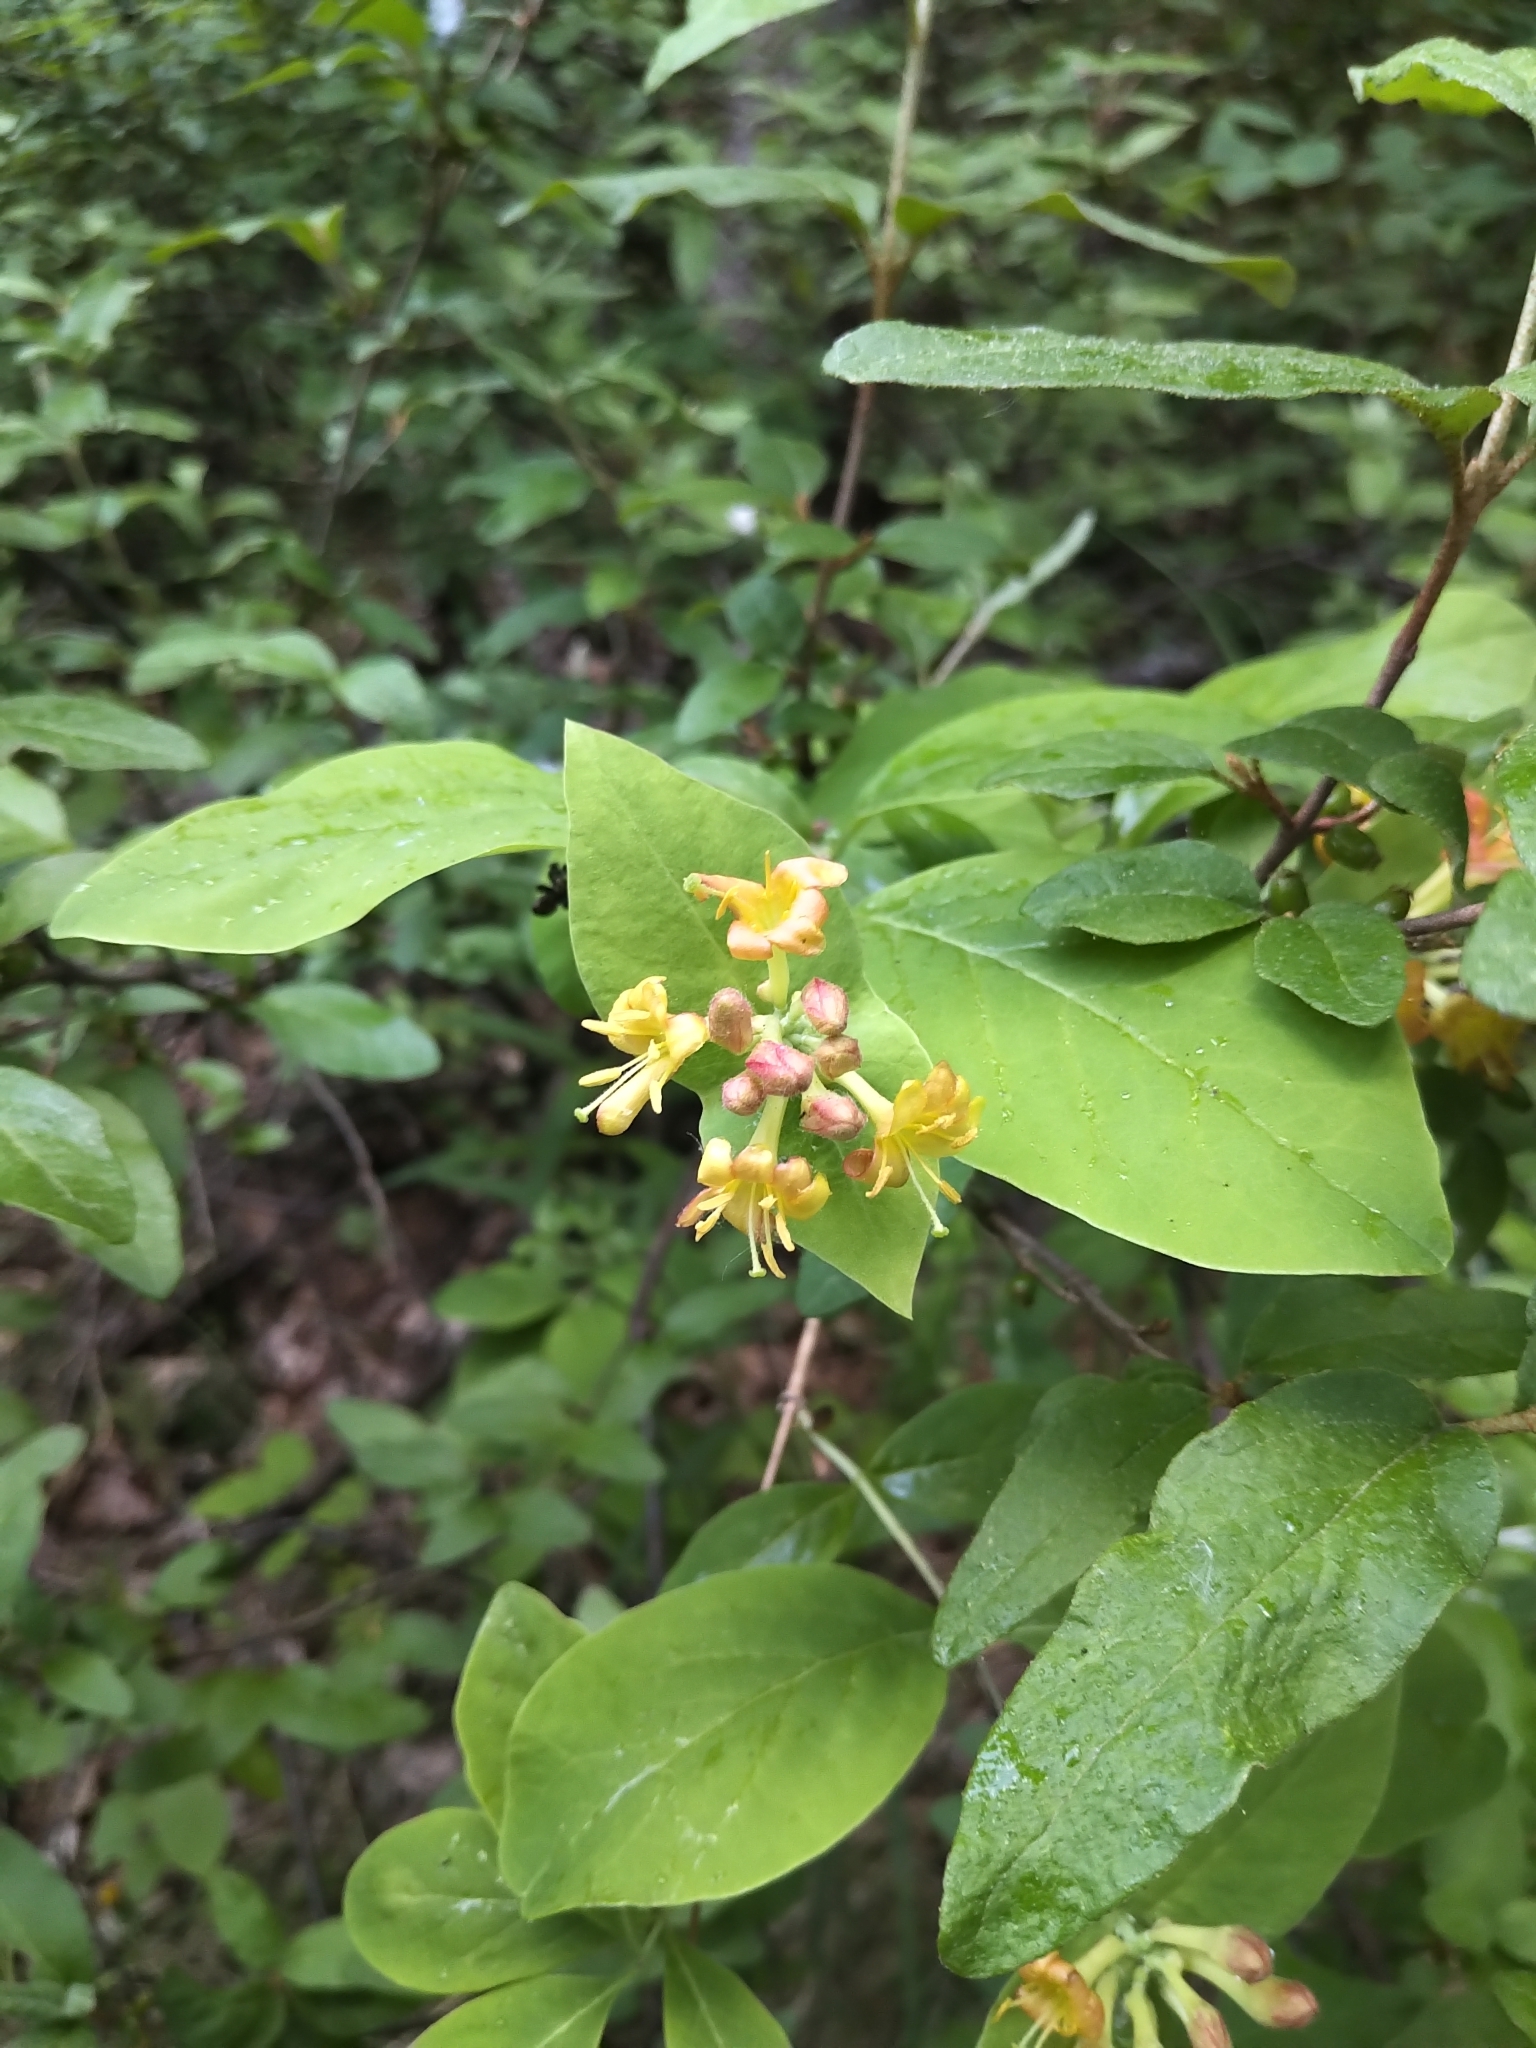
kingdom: Plantae
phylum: Tracheophyta
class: Magnoliopsida
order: Dipsacales
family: Caprifoliaceae
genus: Lonicera
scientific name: Lonicera dioica
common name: Limber honeysuckle
